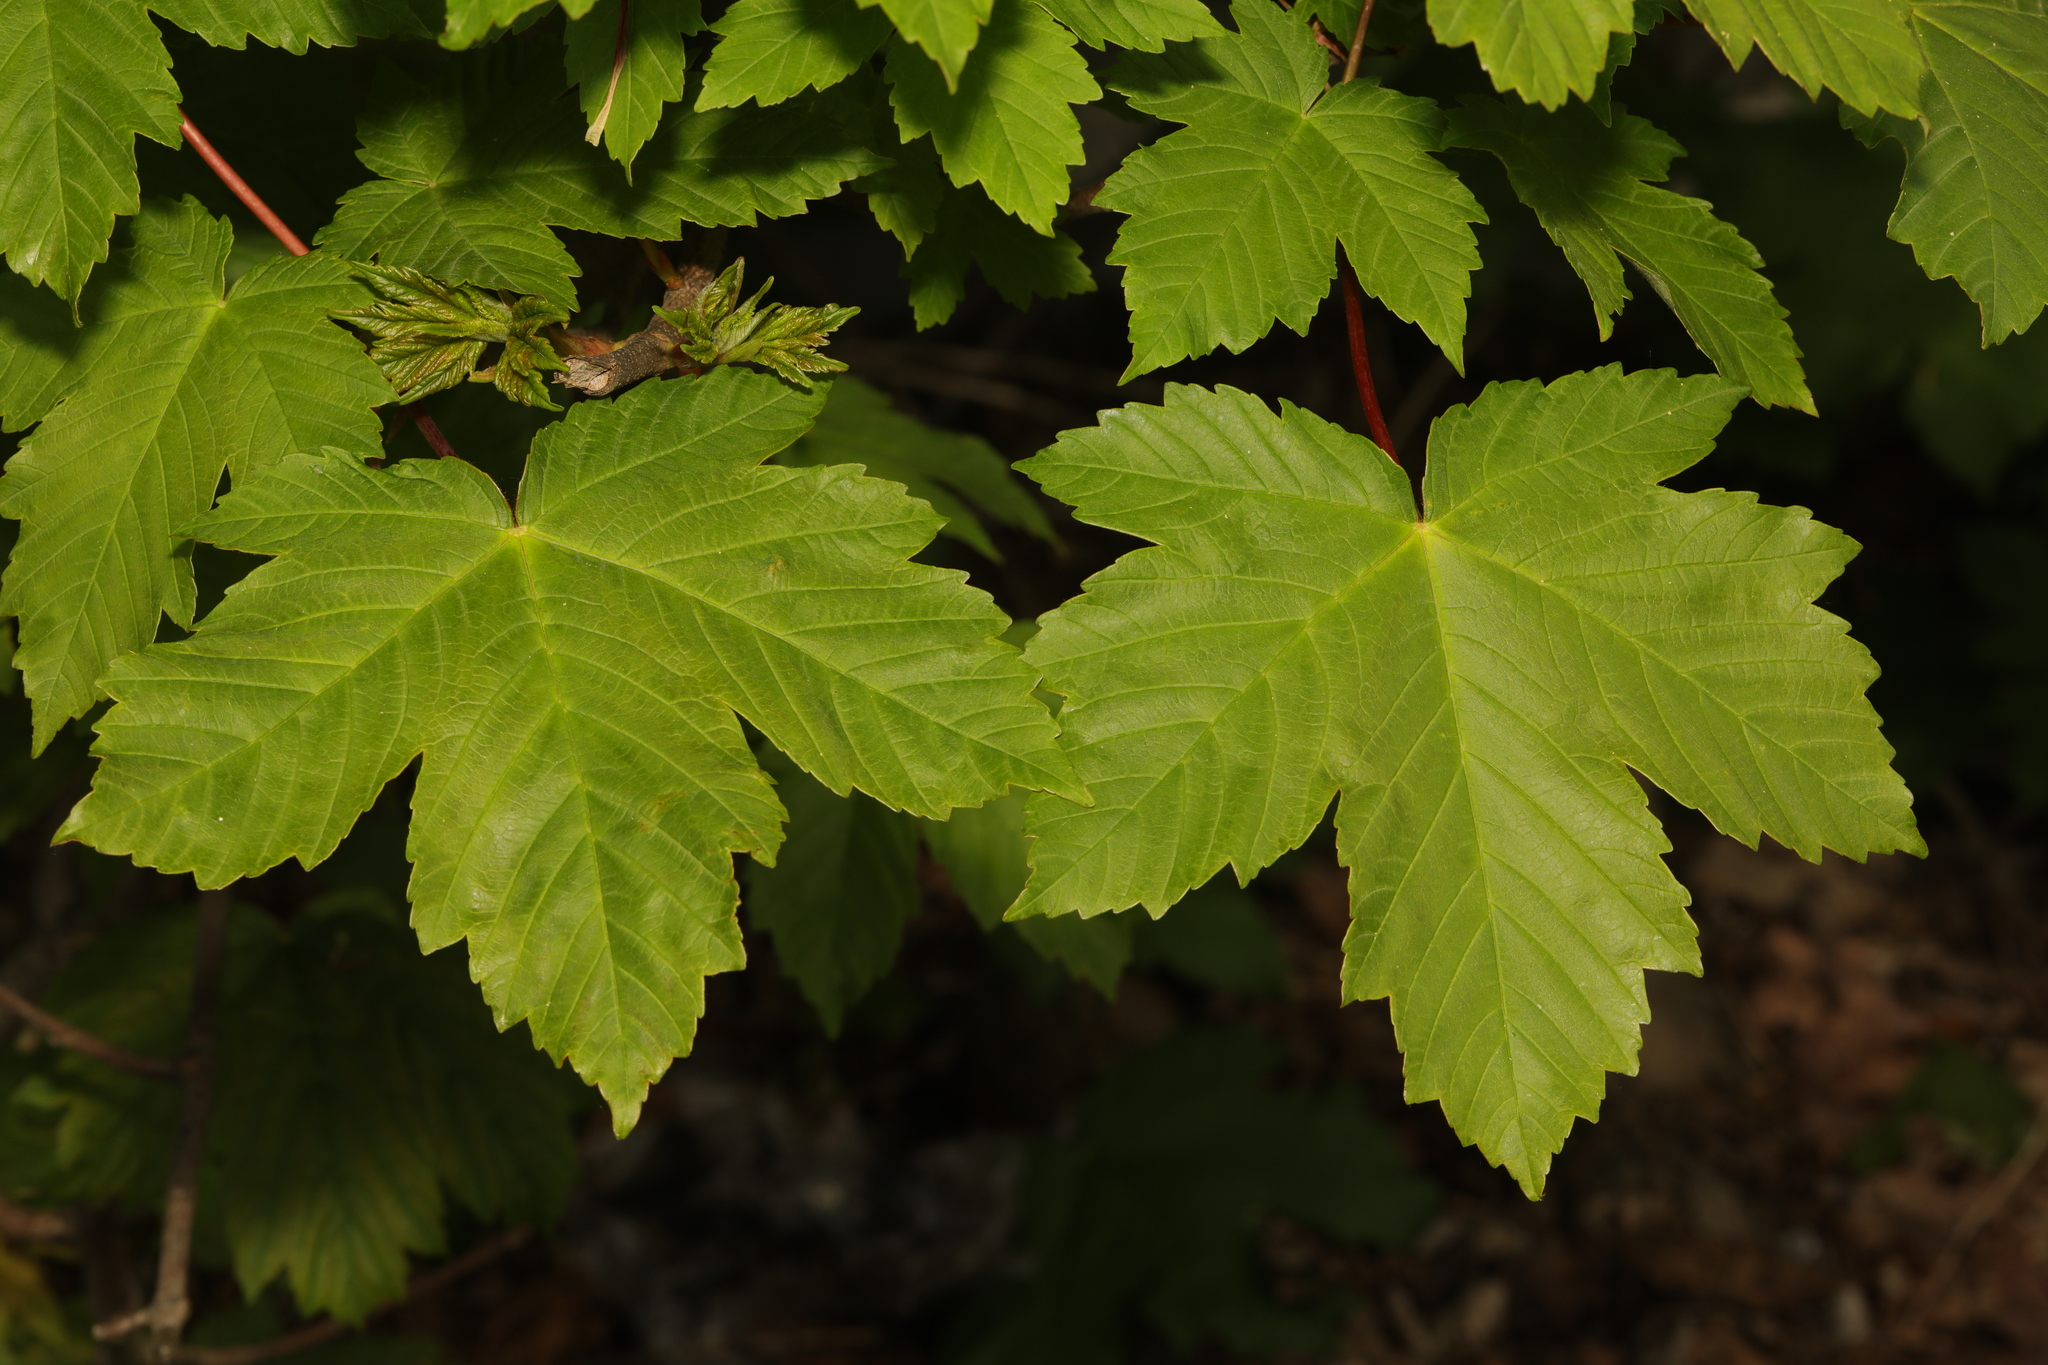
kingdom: Plantae
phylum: Tracheophyta
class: Magnoliopsida
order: Sapindales
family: Sapindaceae
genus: Acer
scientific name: Acer pseudoplatanus
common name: Sycamore
